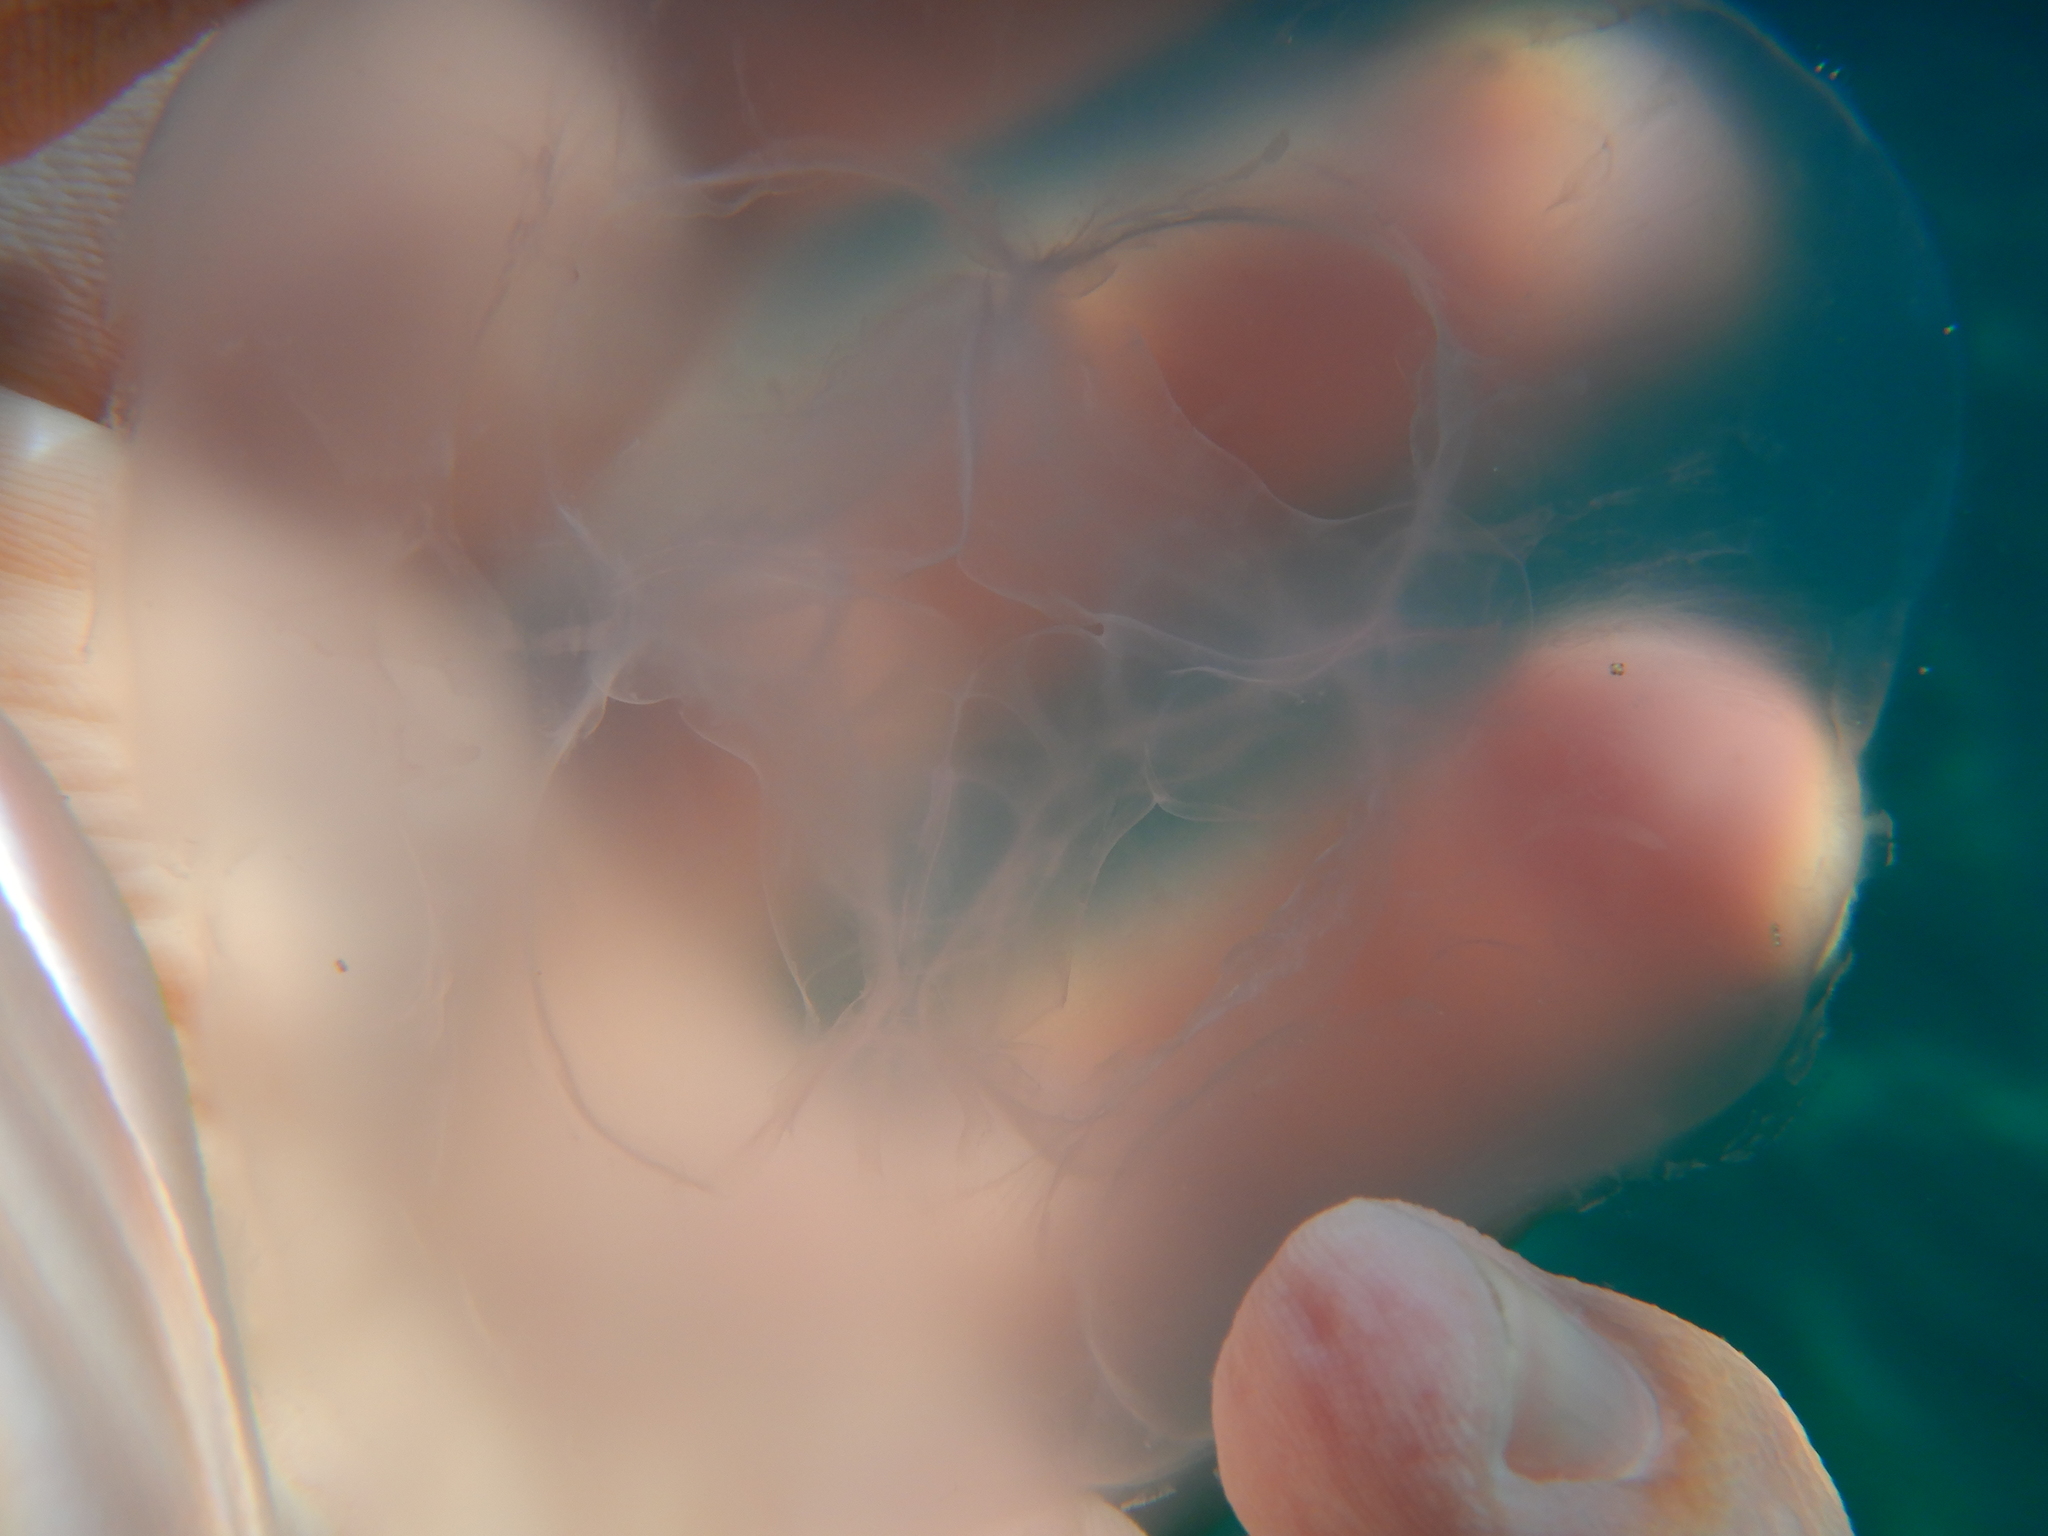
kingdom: Animalia
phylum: Cnidaria
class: Scyphozoa
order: Semaeostomeae
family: Ulmaridae
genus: Aurelia
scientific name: Aurelia aurita
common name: Moon jellyfish
